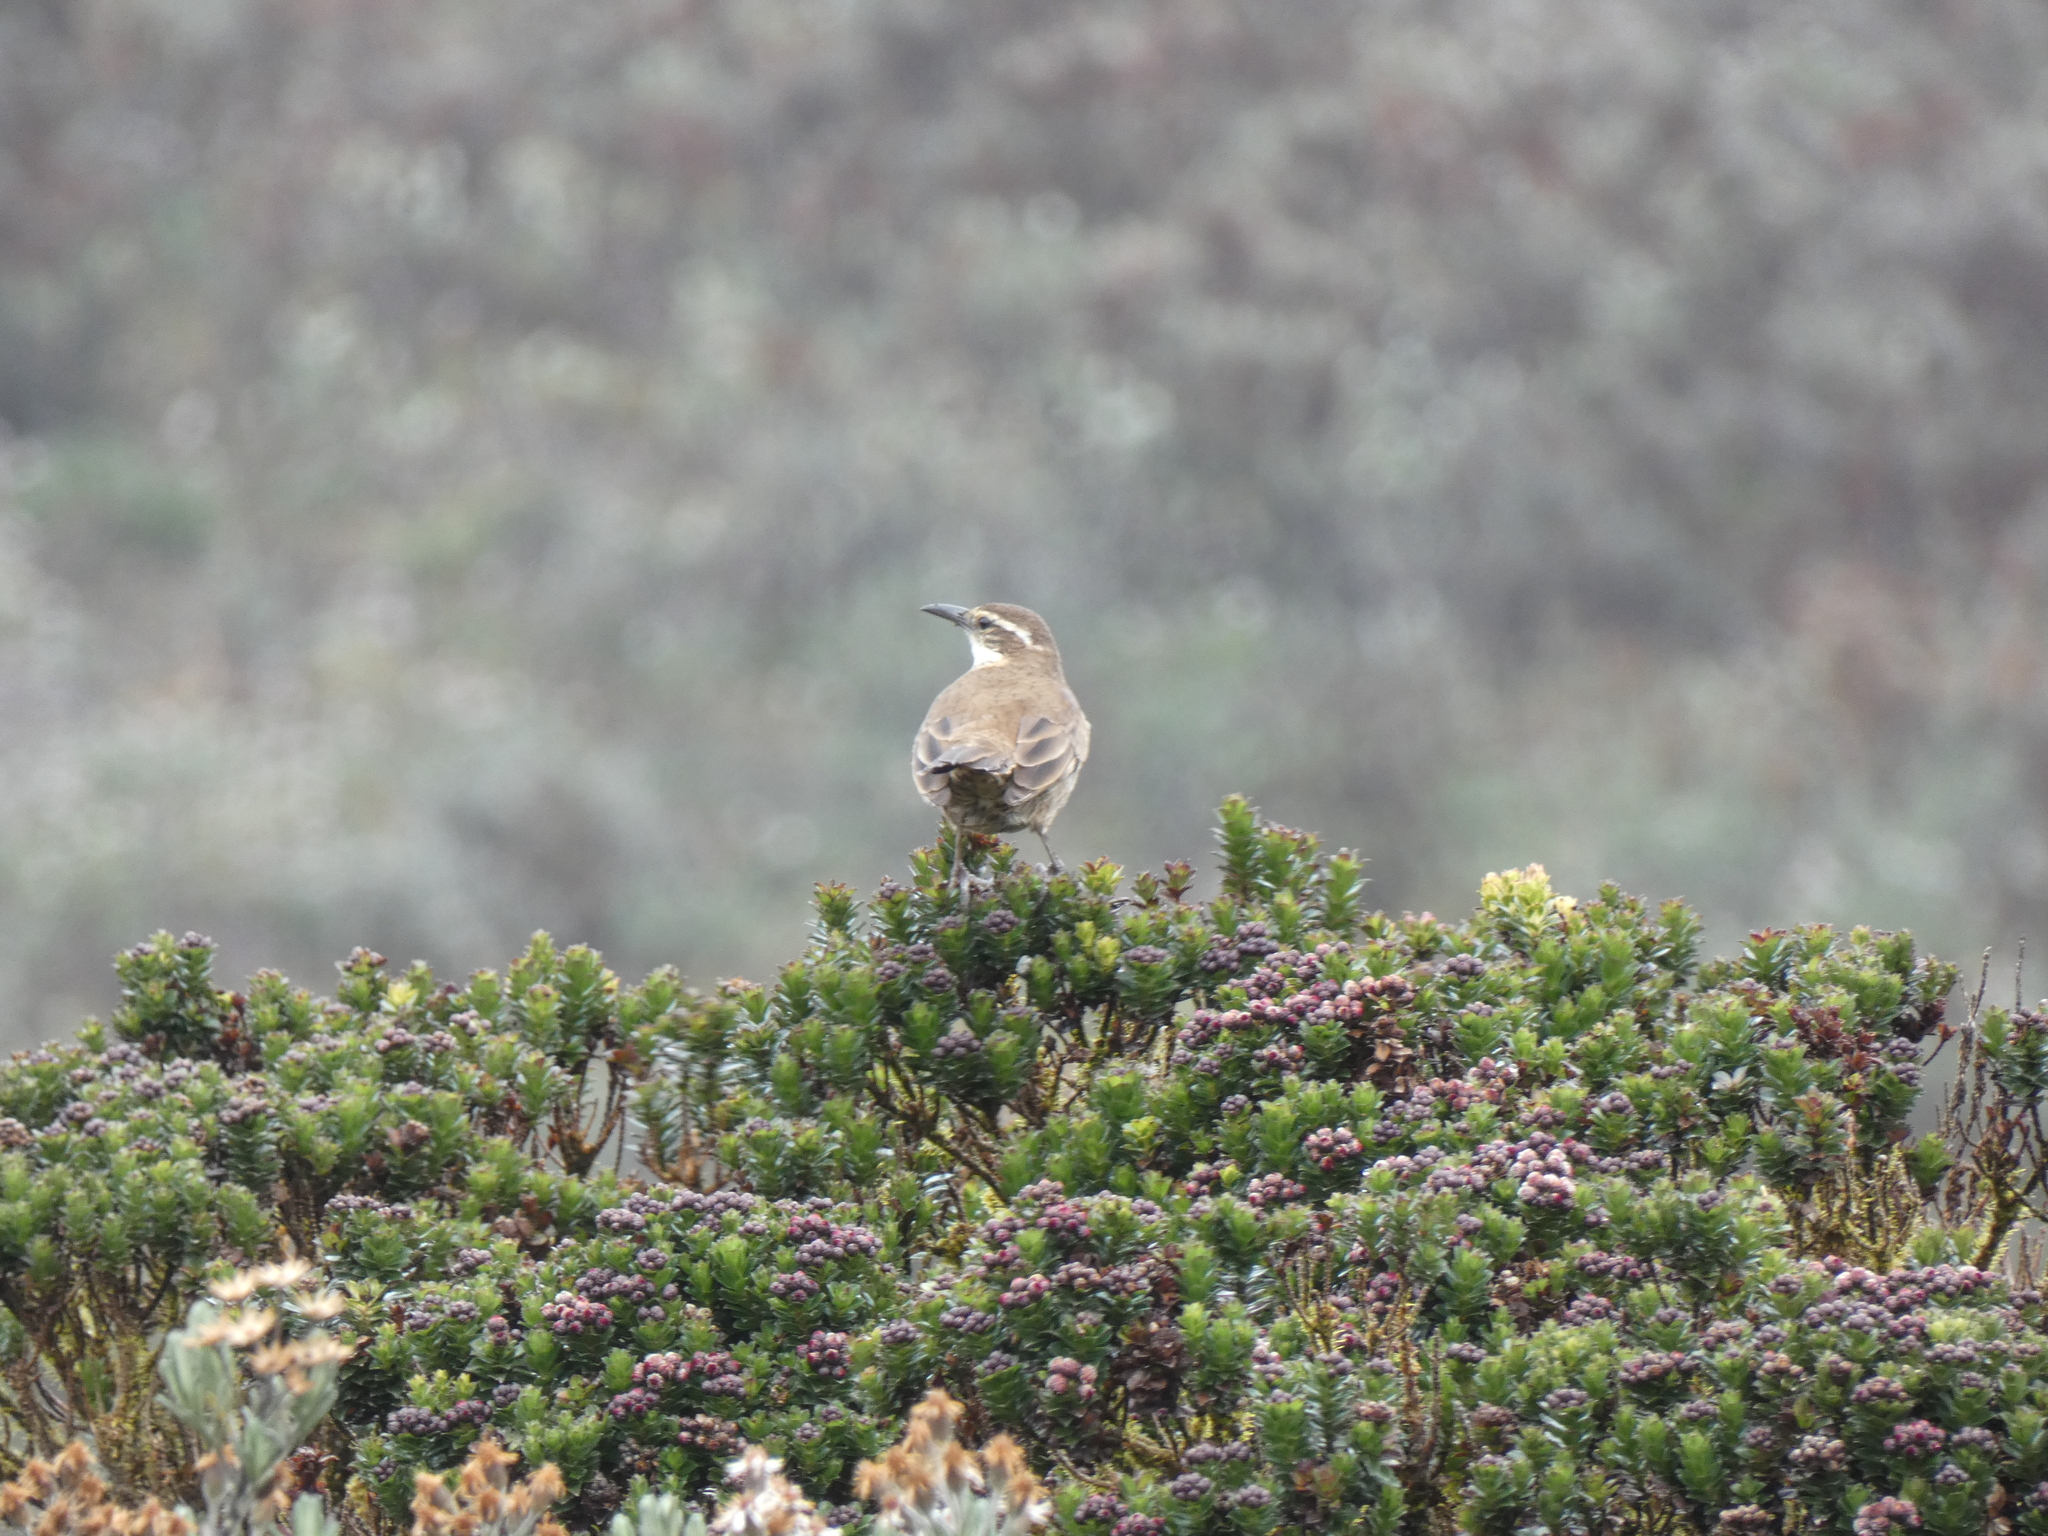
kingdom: Animalia
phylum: Chordata
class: Aves
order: Passeriformes
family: Furnariidae
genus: Cinclodes
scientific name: Cinclodes excelsior
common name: Stout-billed cinclodes
